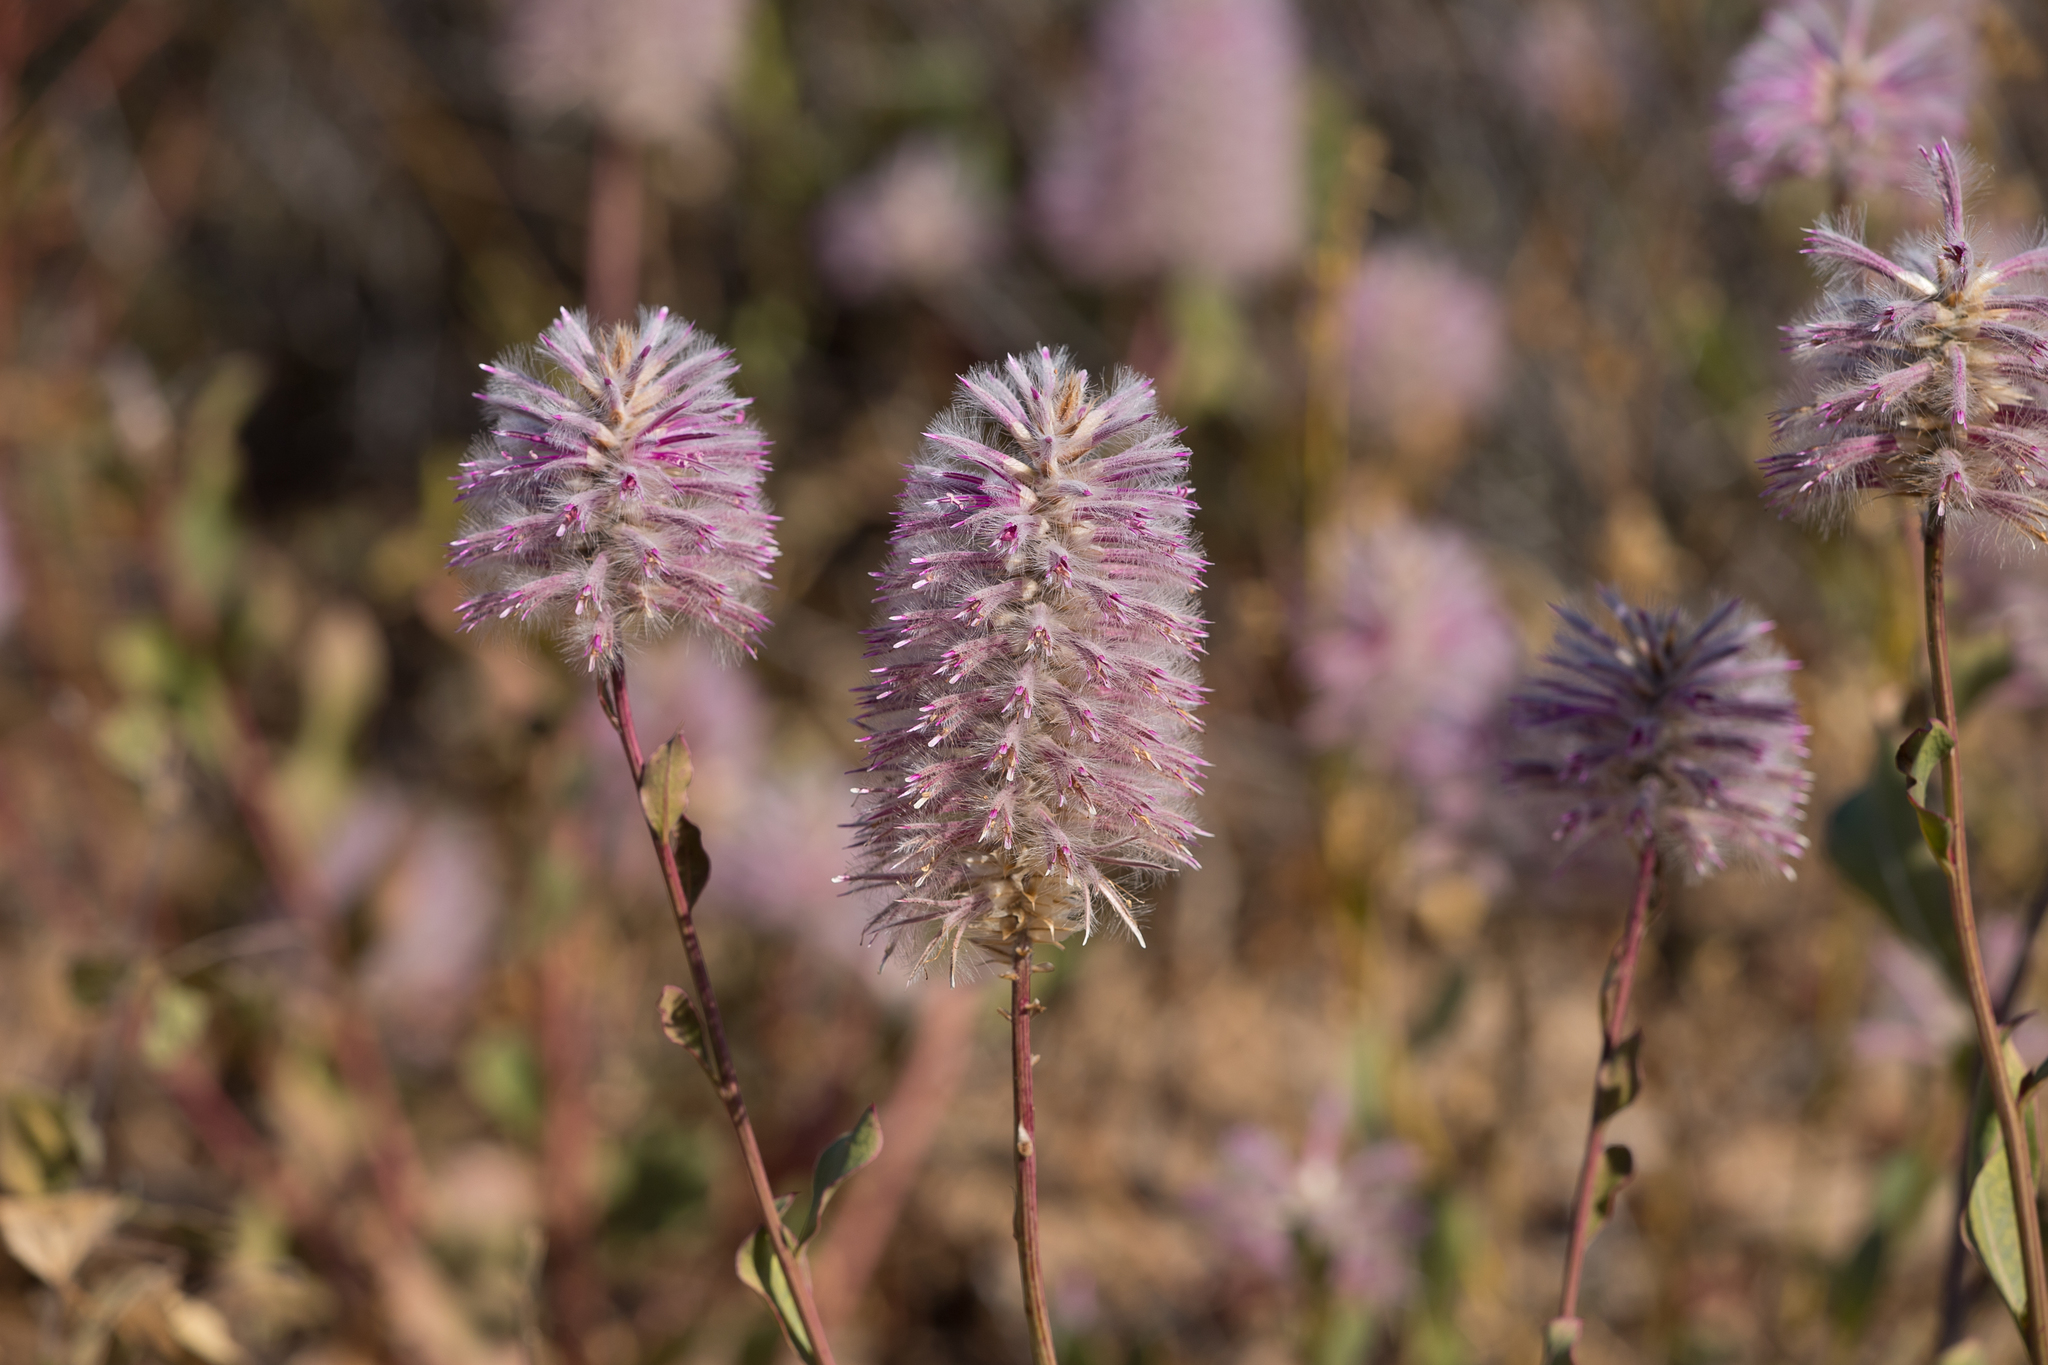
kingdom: Plantae
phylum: Tracheophyta
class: Magnoliopsida
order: Caryophyllales
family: Amaranthaceae
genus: Ptilotus
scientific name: Ptilotus nobilis
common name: Regal-foxtail
